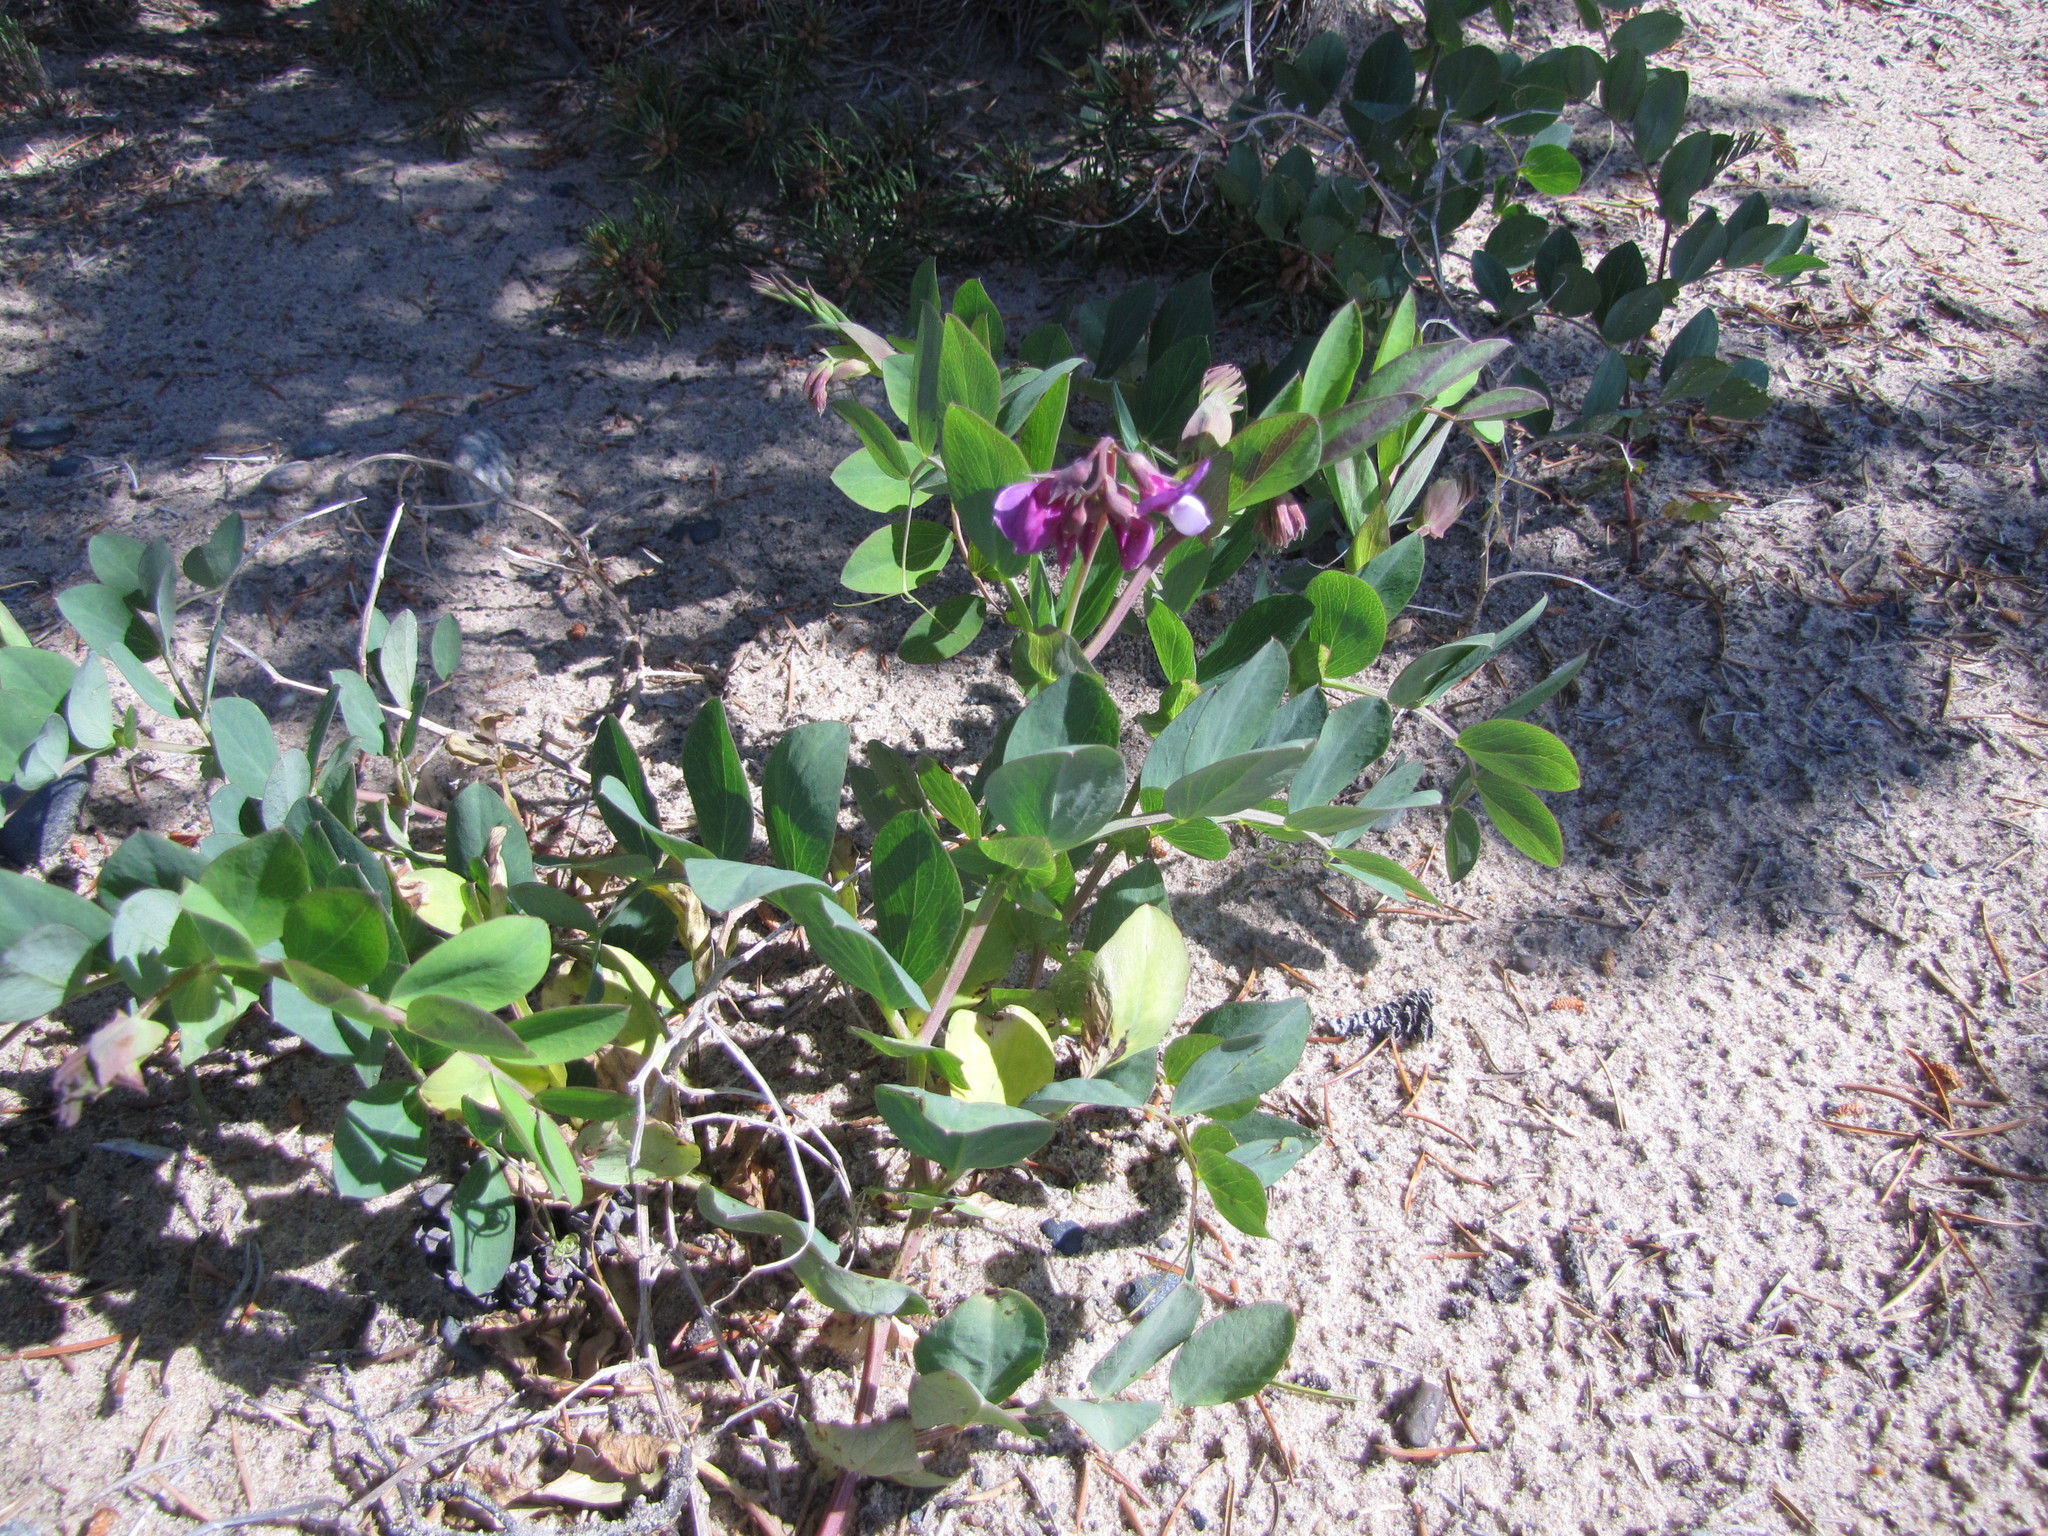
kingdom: Plantae
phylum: Tracheophyta
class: Magnoliopsida
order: Fabales
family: Fabaceae
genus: Lathyrus
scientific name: Lathyrus japonicus
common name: Sea pea
